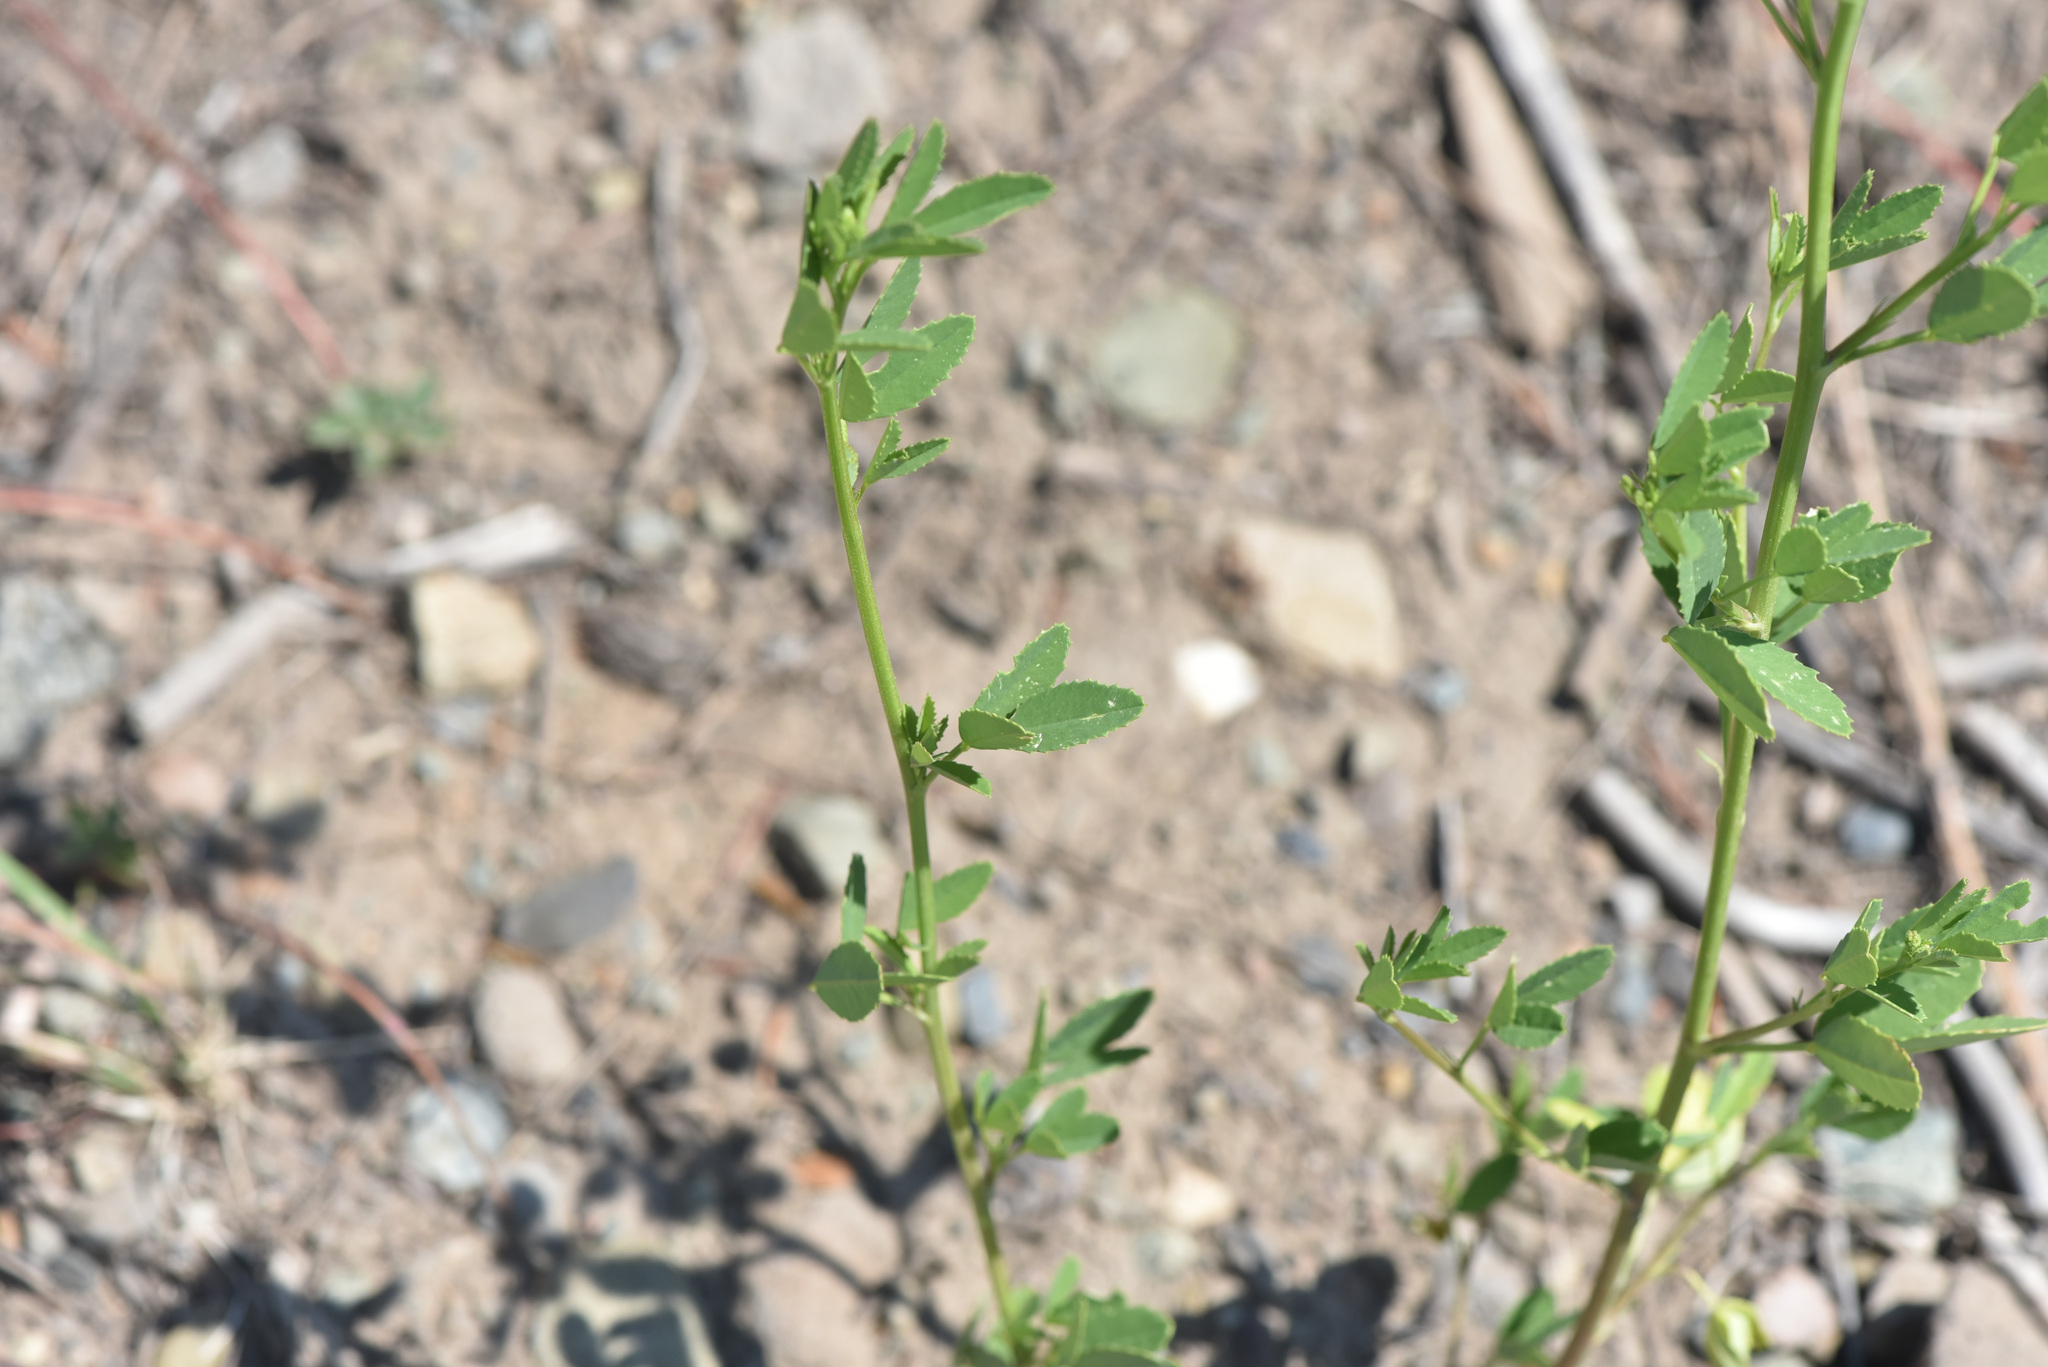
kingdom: Plantae
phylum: Tracheophyta
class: Magnoliopsida
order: Fabales
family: Fabaceae
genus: Melilotus
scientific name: Melilotus
